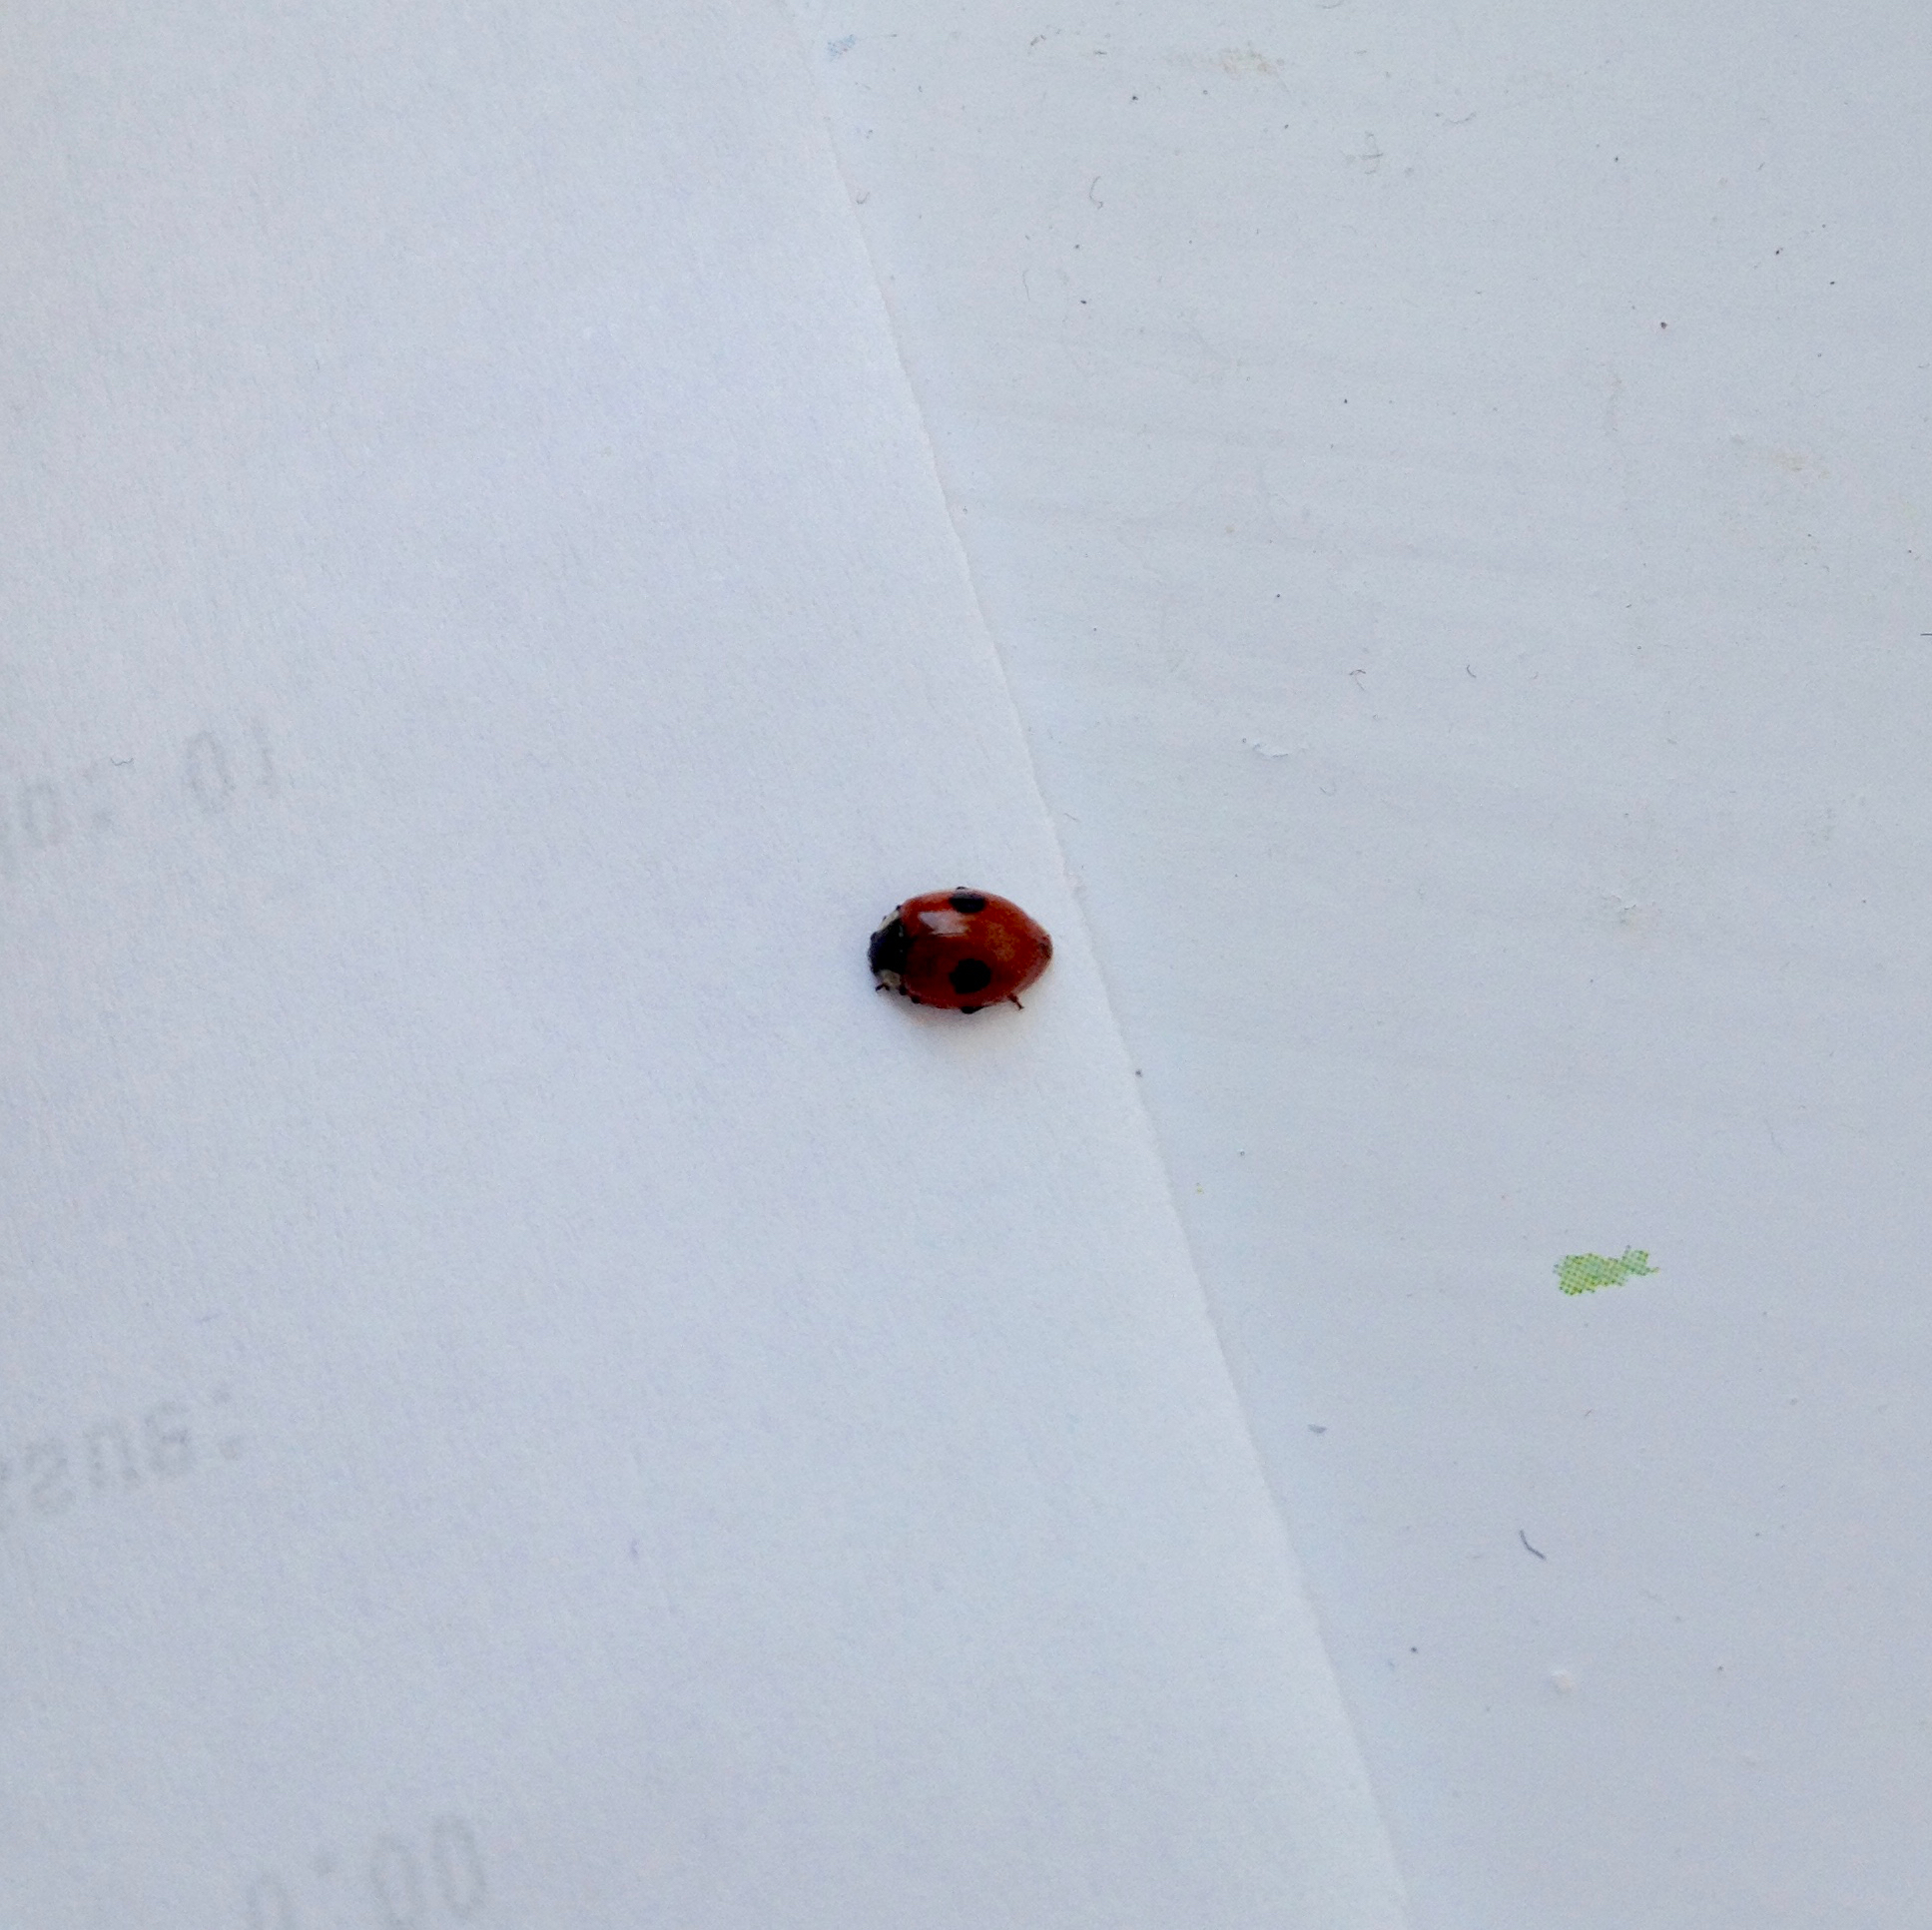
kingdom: Animalia
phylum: Arthropoda
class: Insecta
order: Coleoptera
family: Coccinellidae
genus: Adalia
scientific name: Adalia bipunctata
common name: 2-spot ladybird
